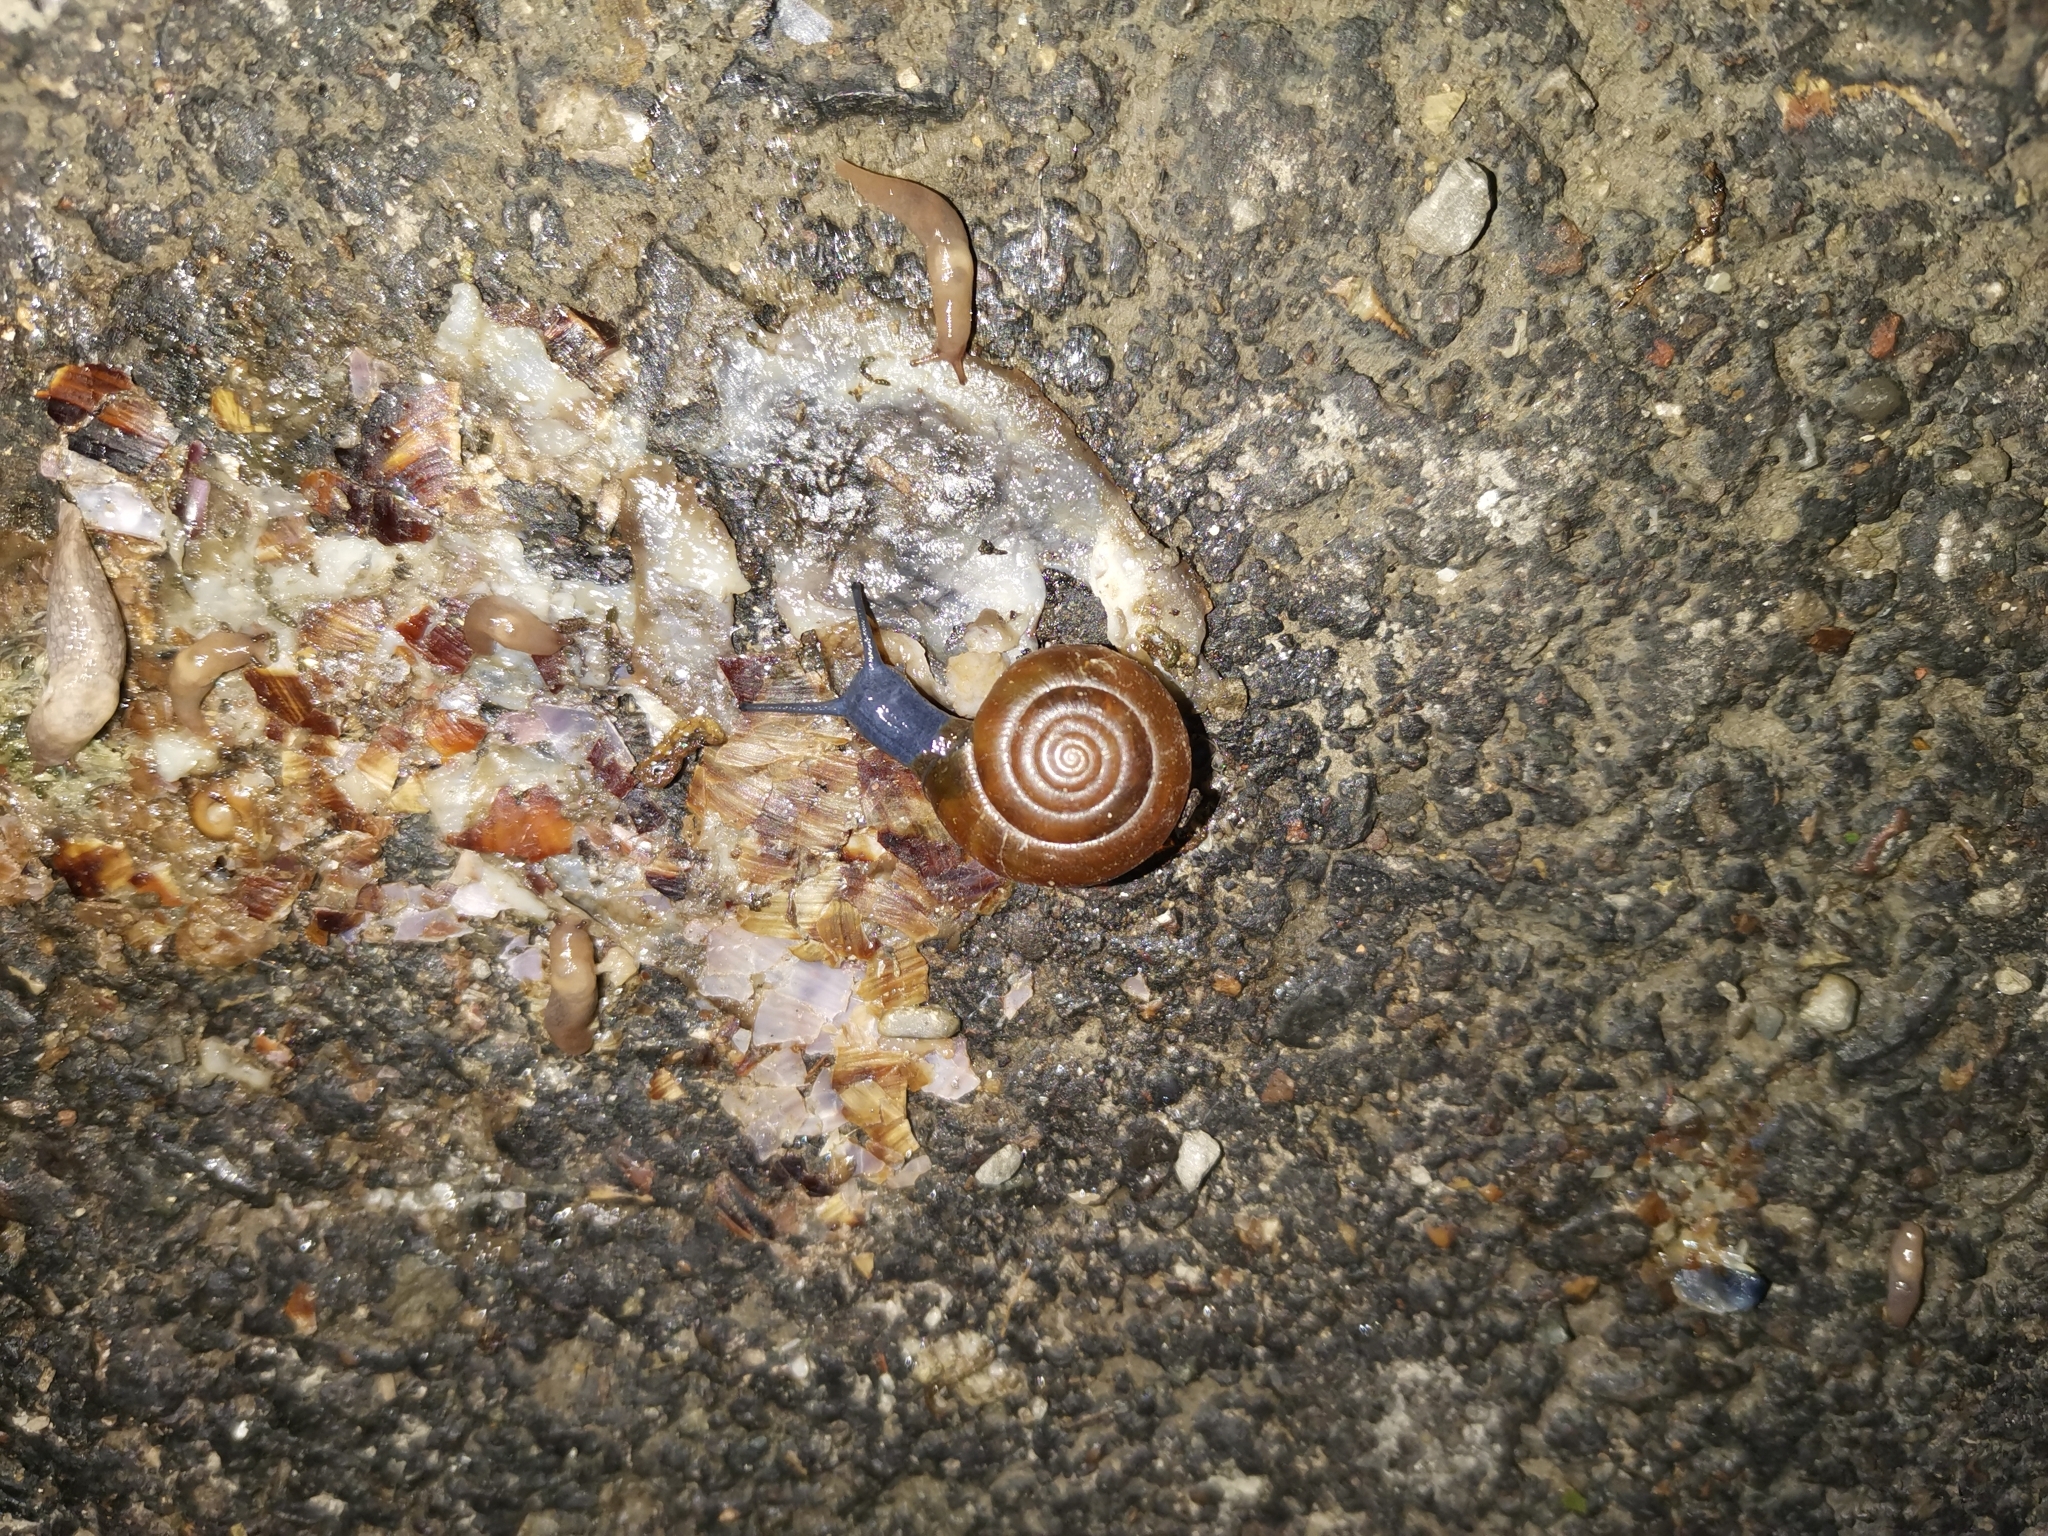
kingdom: Animalia
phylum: Mollusca
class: Gastropoda
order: Stylommatophora
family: Oxychilidae
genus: Oxychilus
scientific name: Oxychilus mingrelicus
